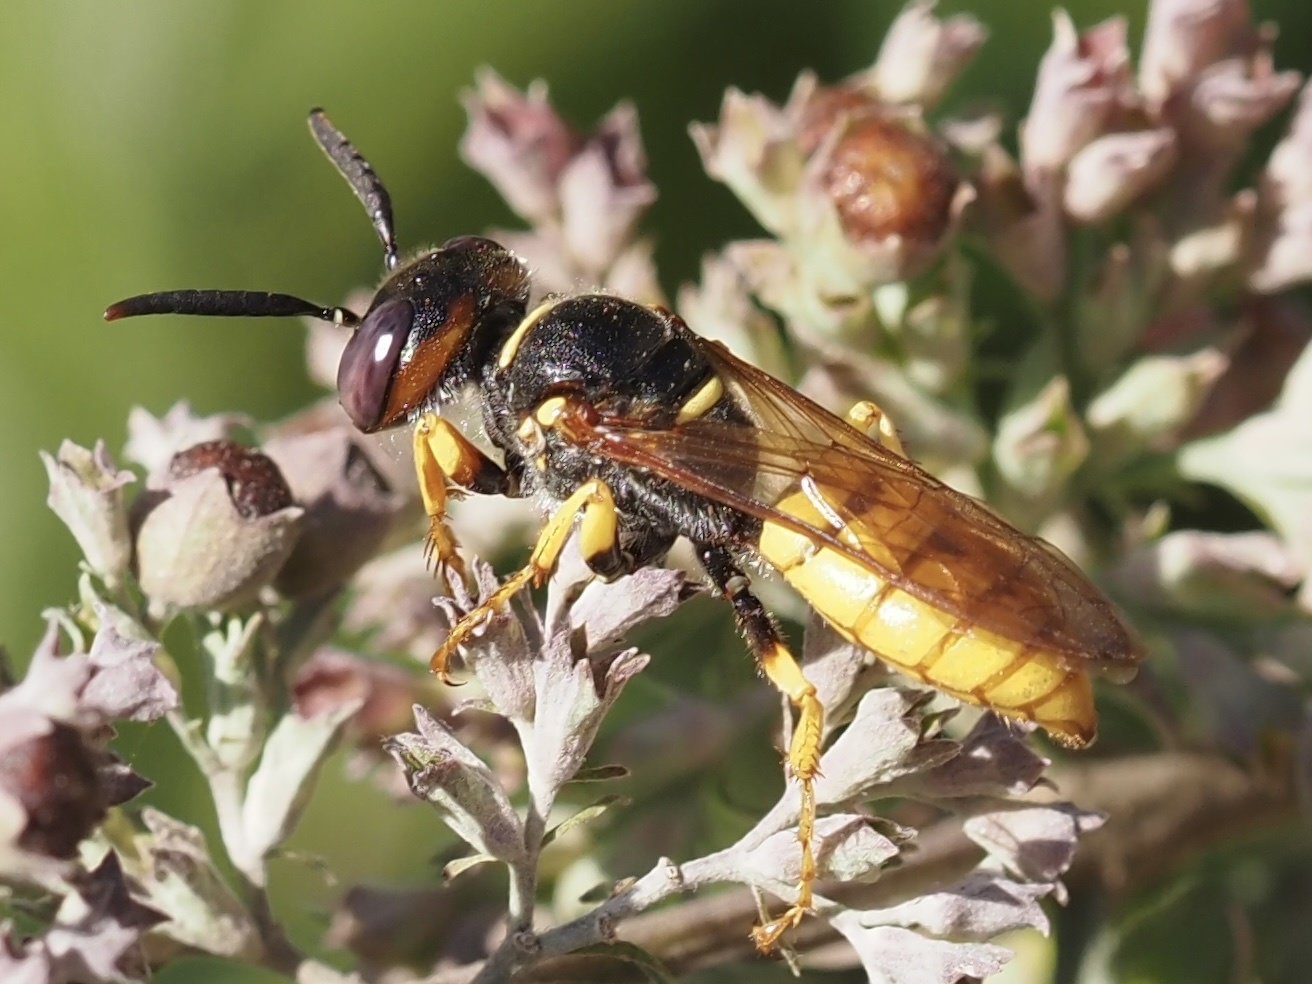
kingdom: Animalia
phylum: Arthropoda
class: Insecta
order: Hymenoptera
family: Crabronidae
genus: Philanthus
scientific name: Philanthus triangulum
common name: Bee wolf
